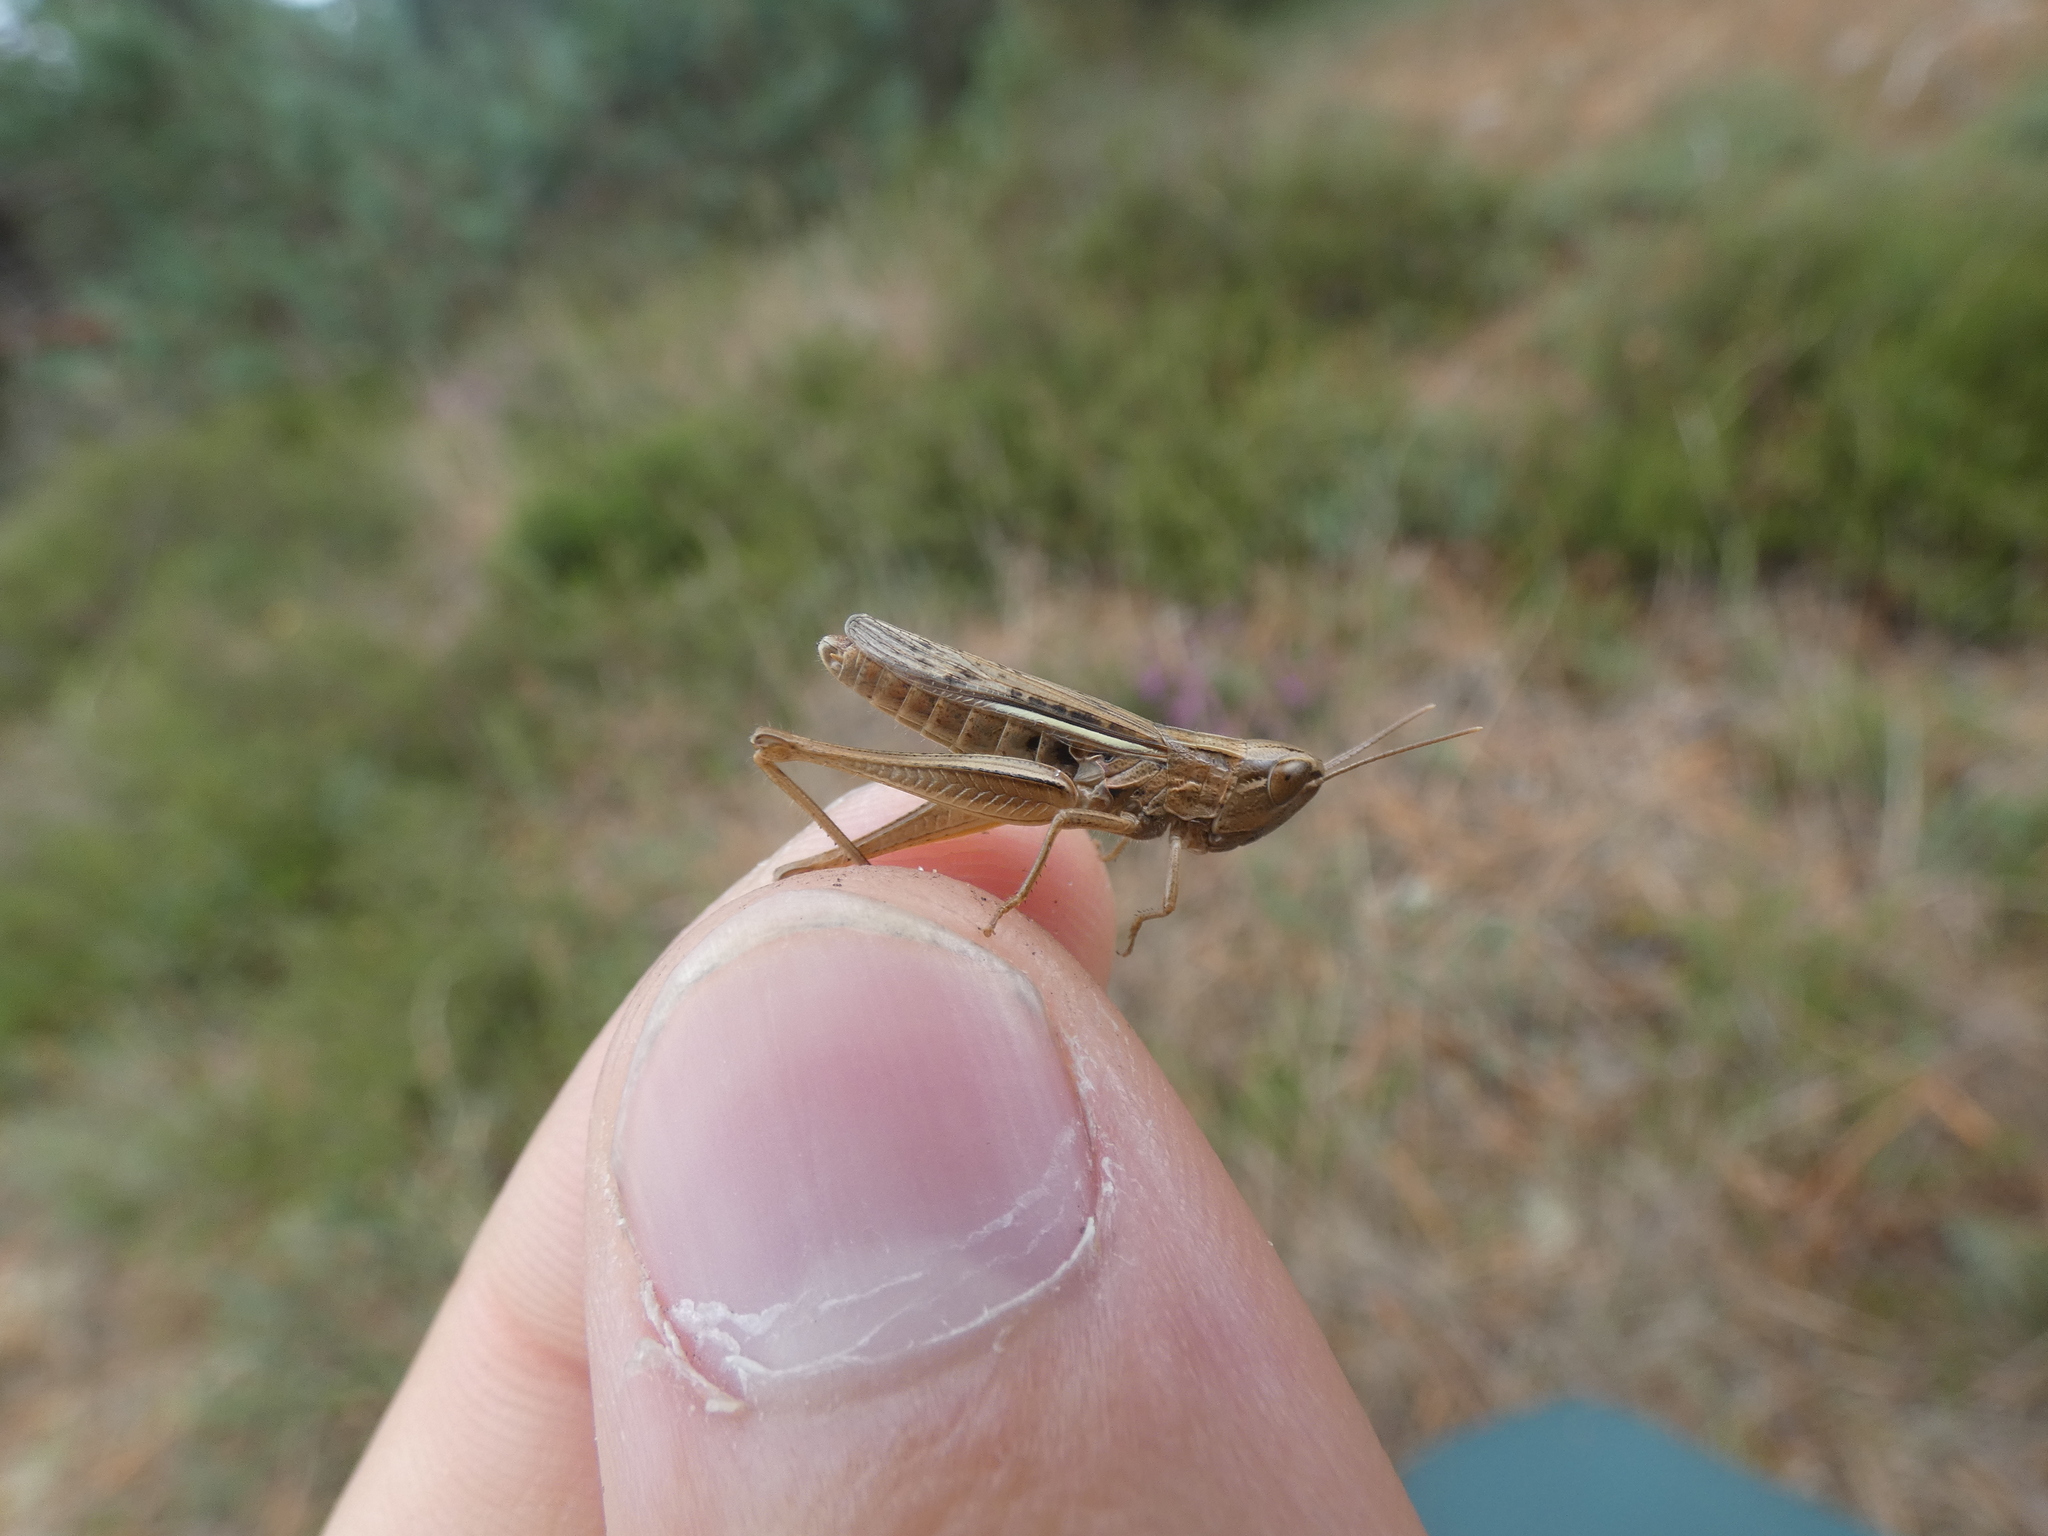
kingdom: Animalia
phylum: Arthropoda
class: Insecta
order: Orthoptera
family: Acrididae
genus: Euchorthippus
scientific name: Euchorthippus elegantulus
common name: Elegant straw grasshopper
